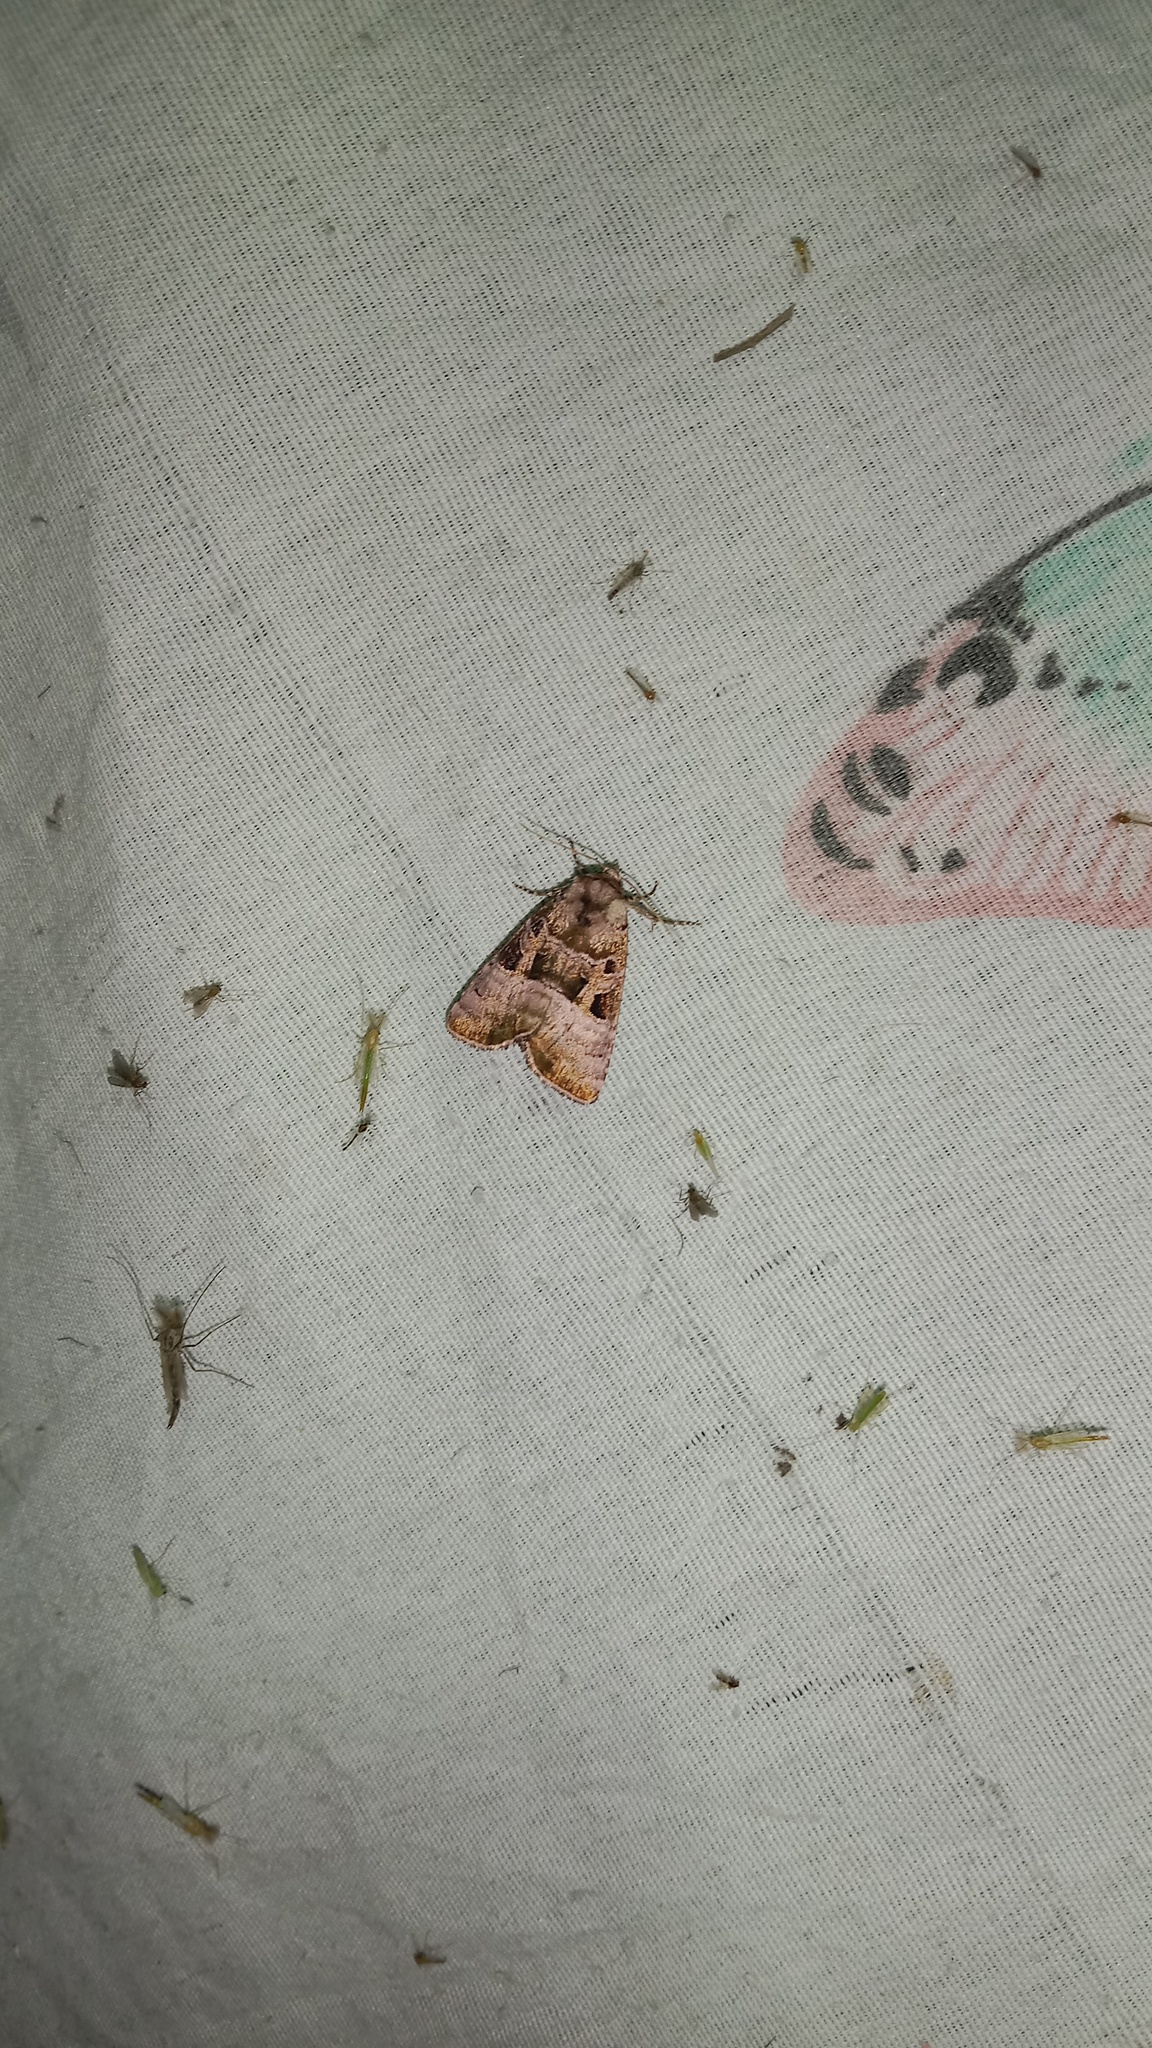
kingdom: Animalia
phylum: Arthropoda
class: Insecta
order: Lepidoptera
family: Noctuidae
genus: Eucarta
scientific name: Eucarta amethystina
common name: Cumberland green
